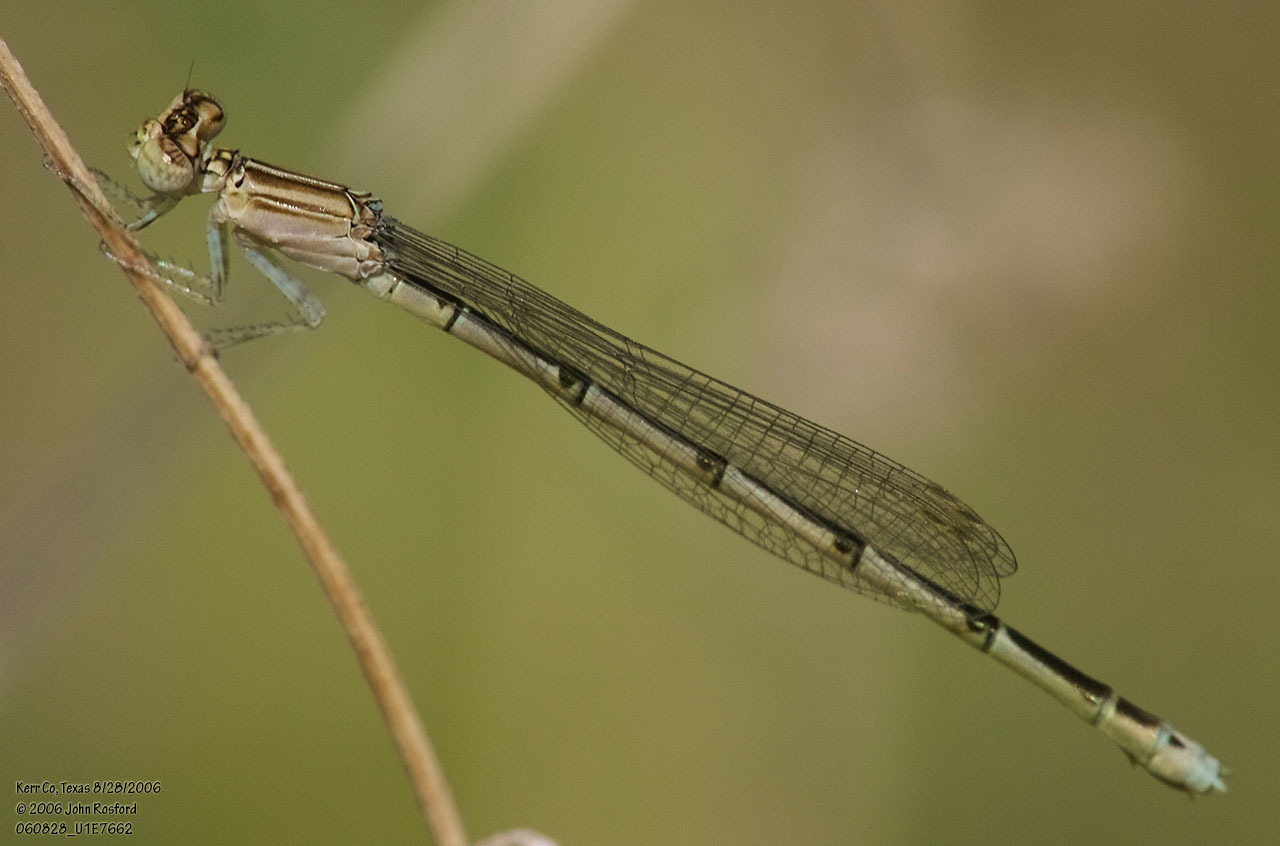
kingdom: Animalia
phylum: Arthropoda
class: Insecta
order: Odonata
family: Coenagrionidae
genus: Enallagma
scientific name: Enallagma basidens
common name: Double-striped bluet
